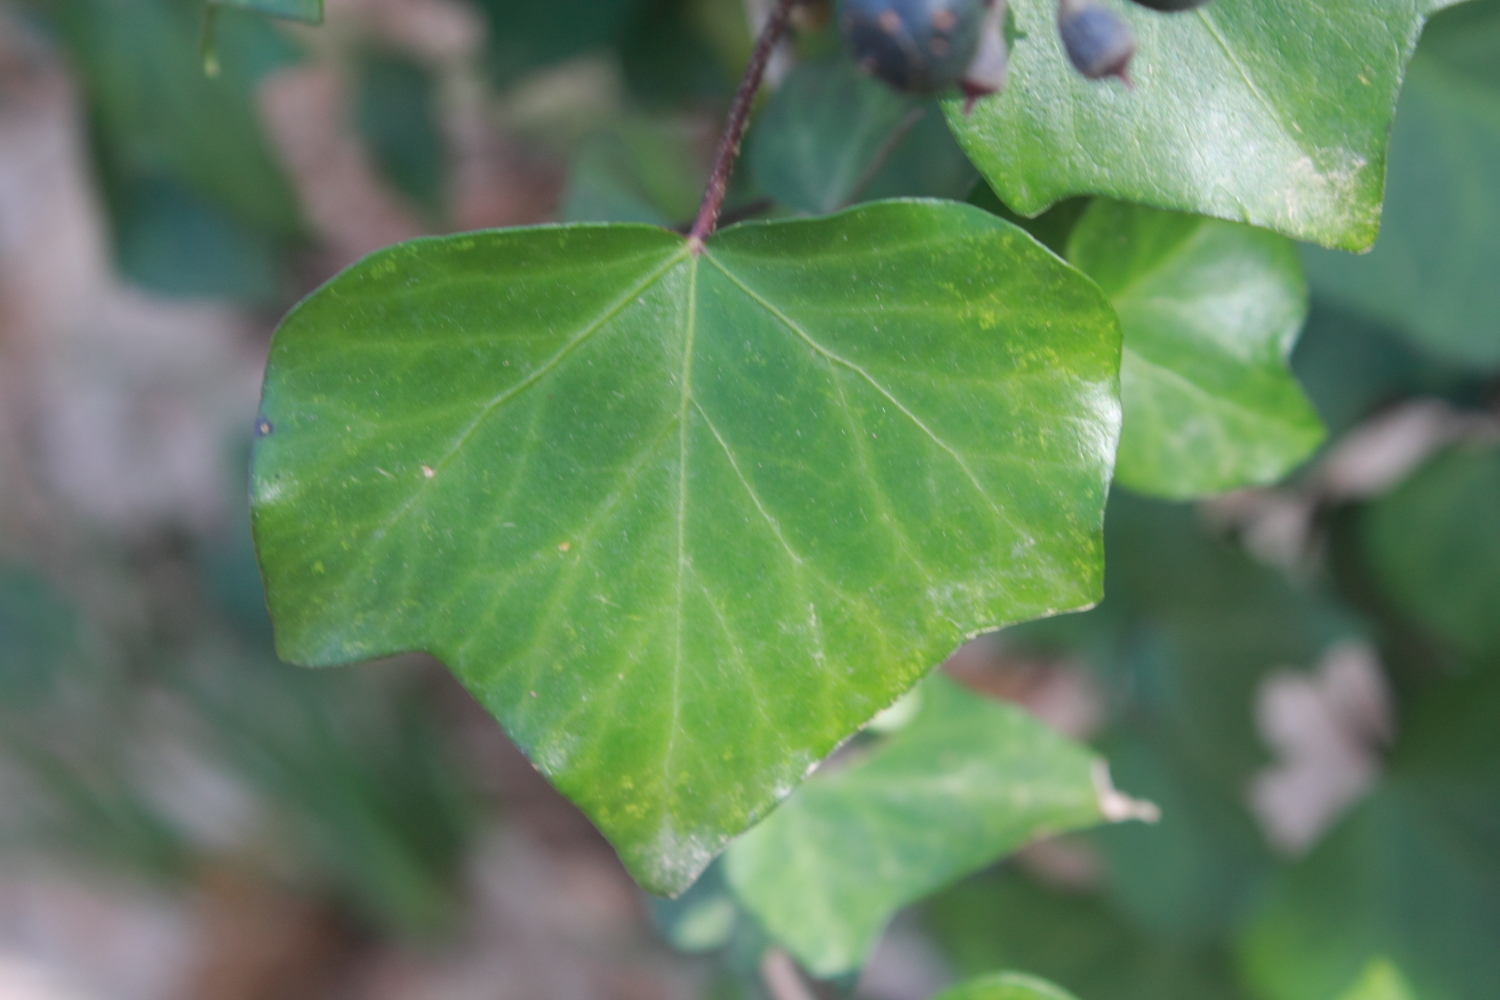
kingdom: Plantae
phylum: Tracheophyta
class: Magnoliopsida
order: Apiales
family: Araliaceae
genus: Hedera
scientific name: Hedera helix
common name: Ivy
